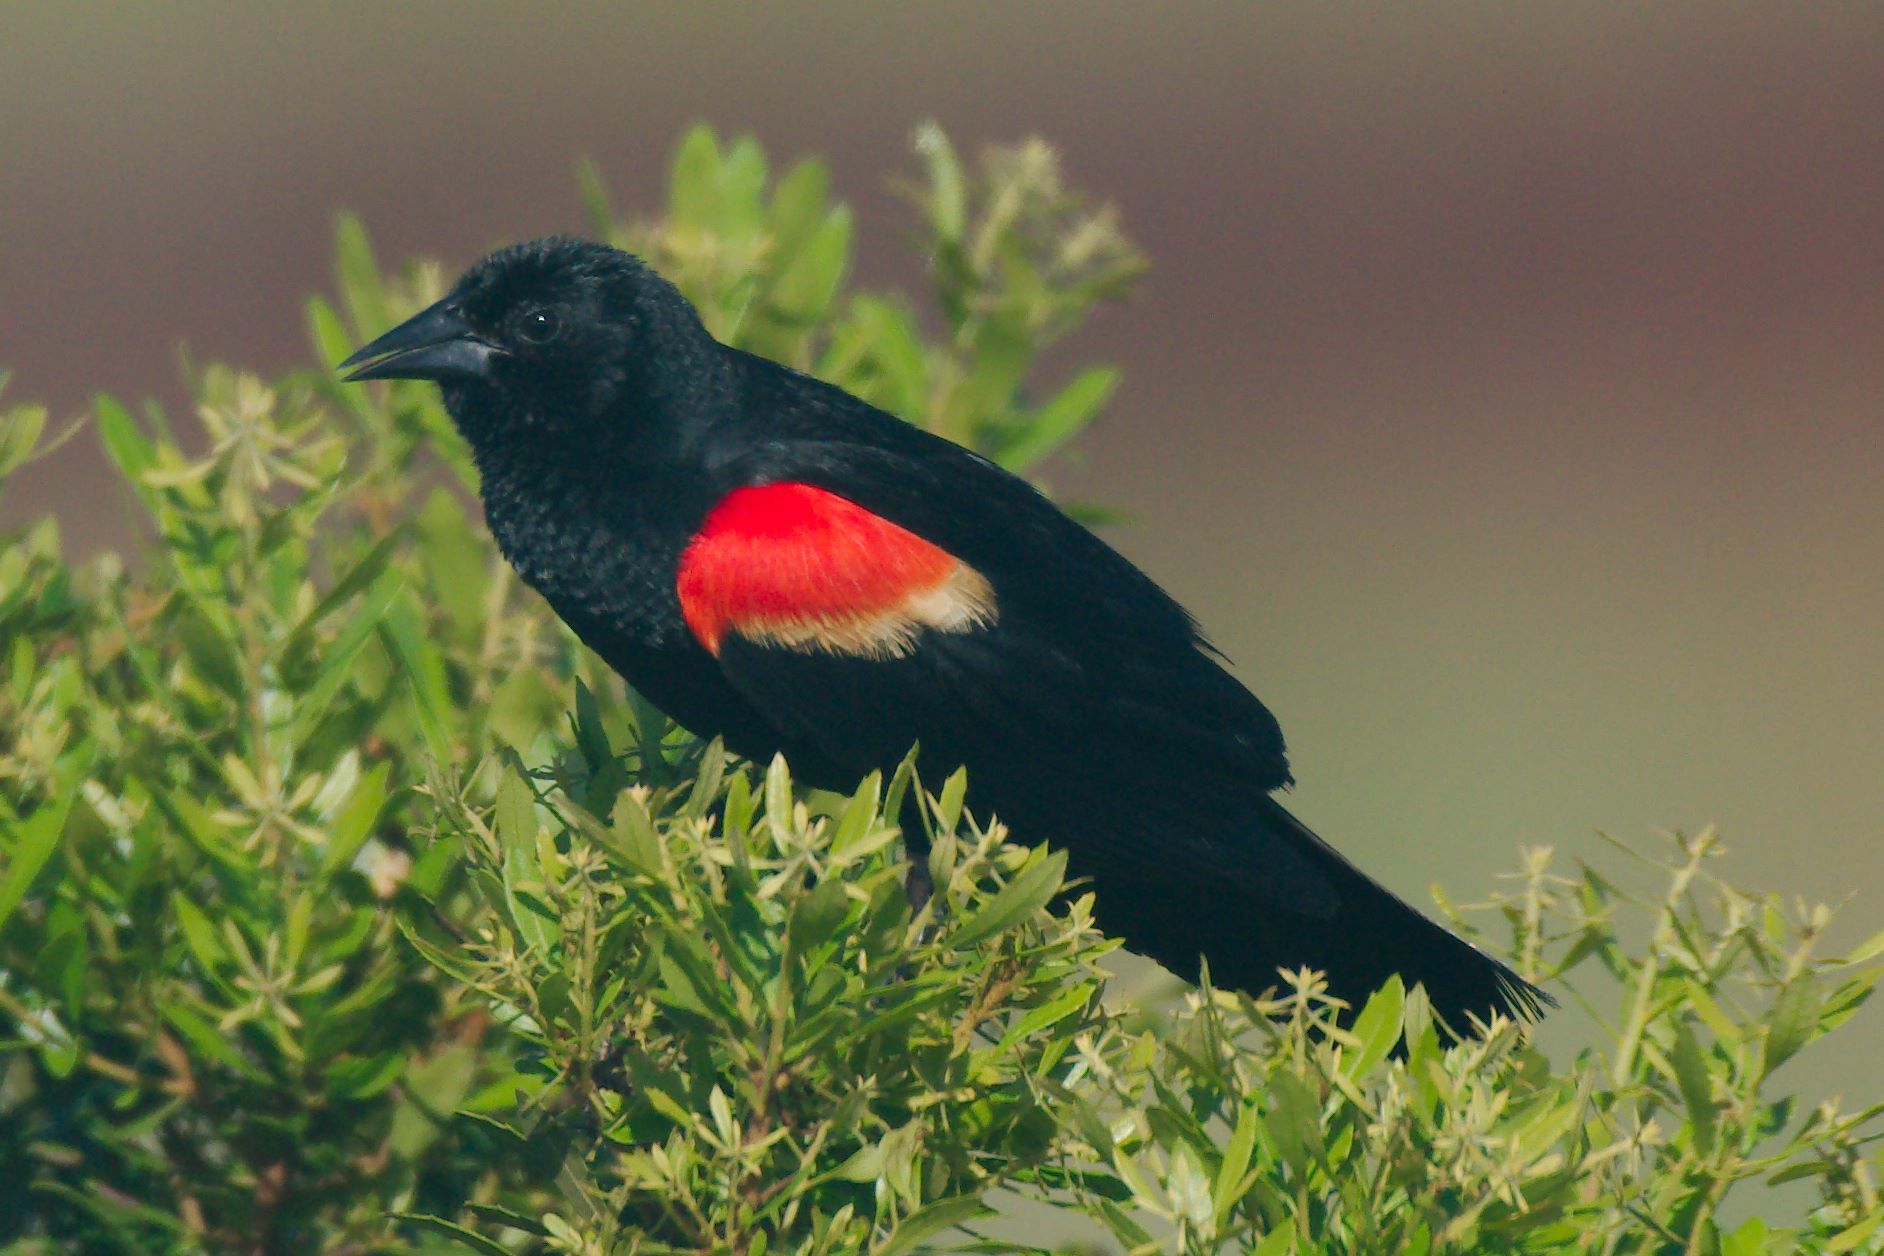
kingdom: Animalia
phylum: Chordata
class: Aves
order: Passeriformes
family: Icteridae
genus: Agelaius
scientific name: Agelaius phoeniceus
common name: Red-winged blackbird
